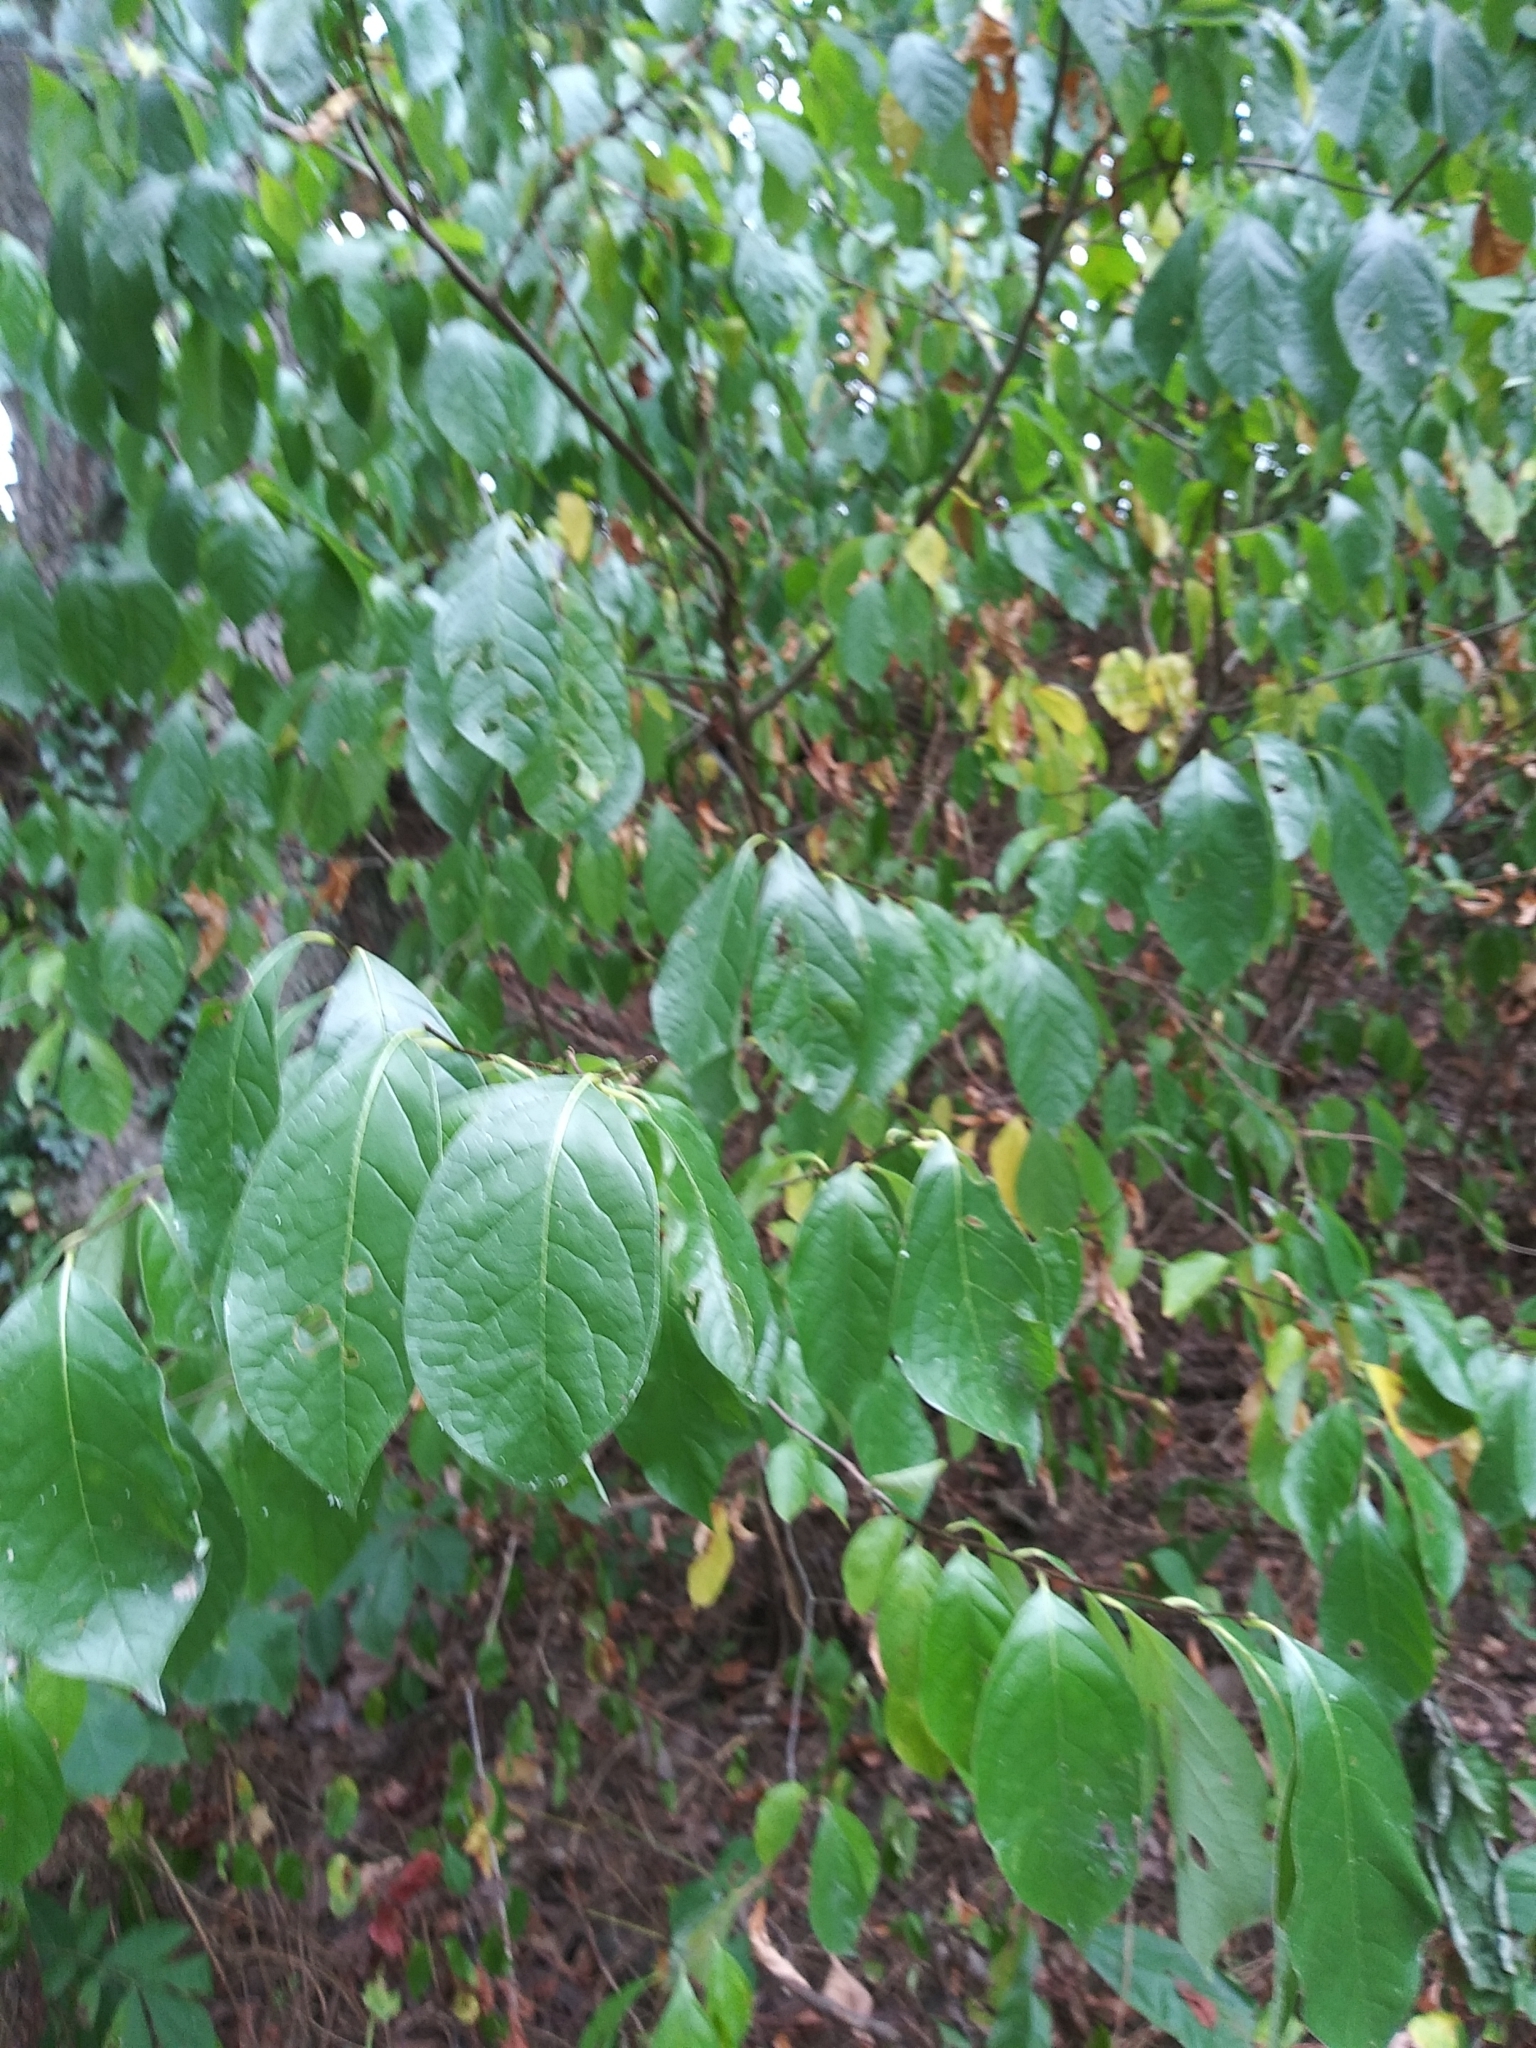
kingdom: Plantae
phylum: Tracheophyta
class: Magnoliopsida
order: Laurales
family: Lauraceae
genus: Lindera
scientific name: Lindera benzoin
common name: Spicebush
